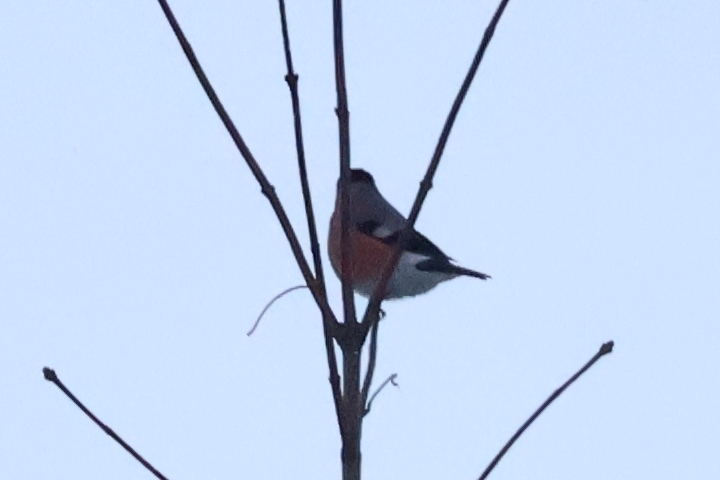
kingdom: Animalia
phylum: Chordata
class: Aves
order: Passeriformes
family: Fringillidae
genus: Pyrrhula
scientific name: Pyrrhula pyrrhula
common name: Eurasian bullfinch
